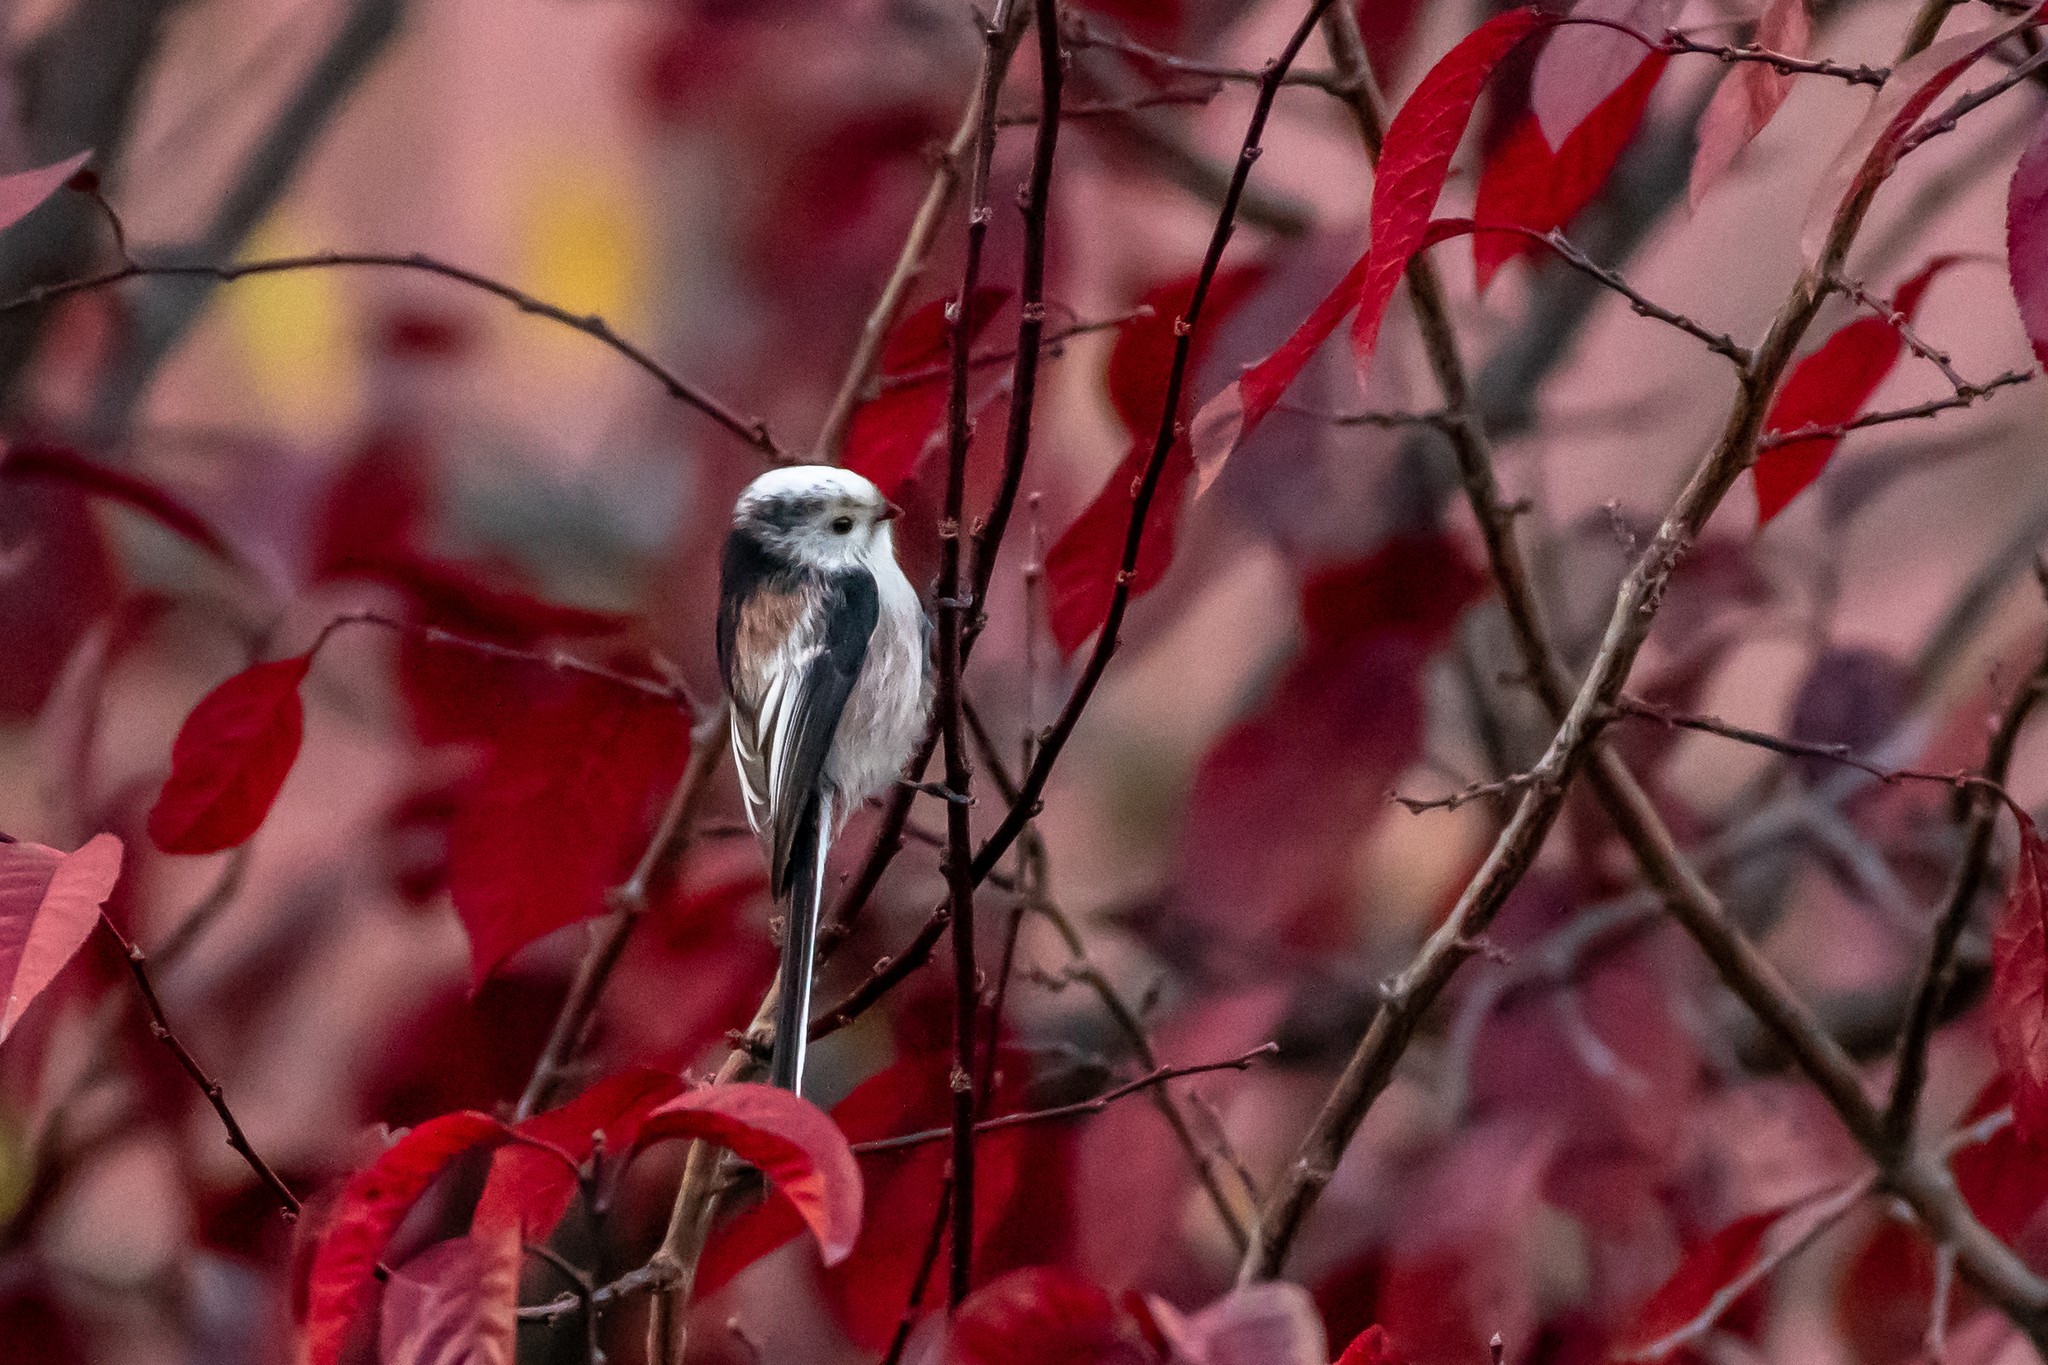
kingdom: Animalia
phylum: Chordata
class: Aves
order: Passeriformes
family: Aegithalidae
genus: Aegithalos
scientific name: Aegithalos caudatus
